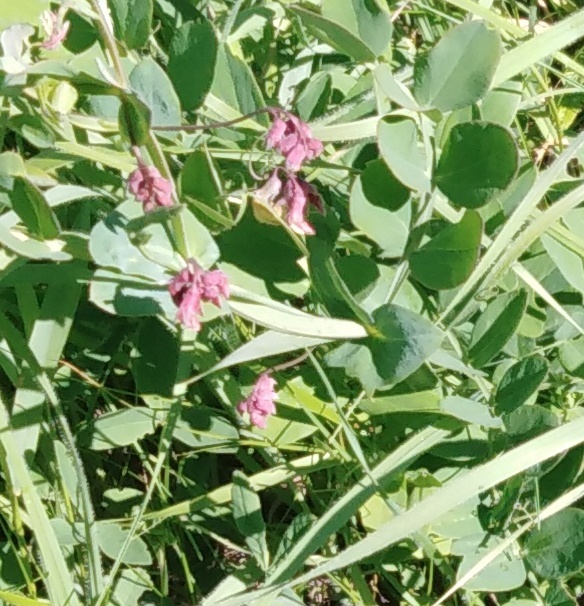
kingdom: Plantae
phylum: Tracheophyta
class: Magnoliopsida
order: Fabales
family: Fabaceae
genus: Lathyrus
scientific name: Lathyrus pisiformis
